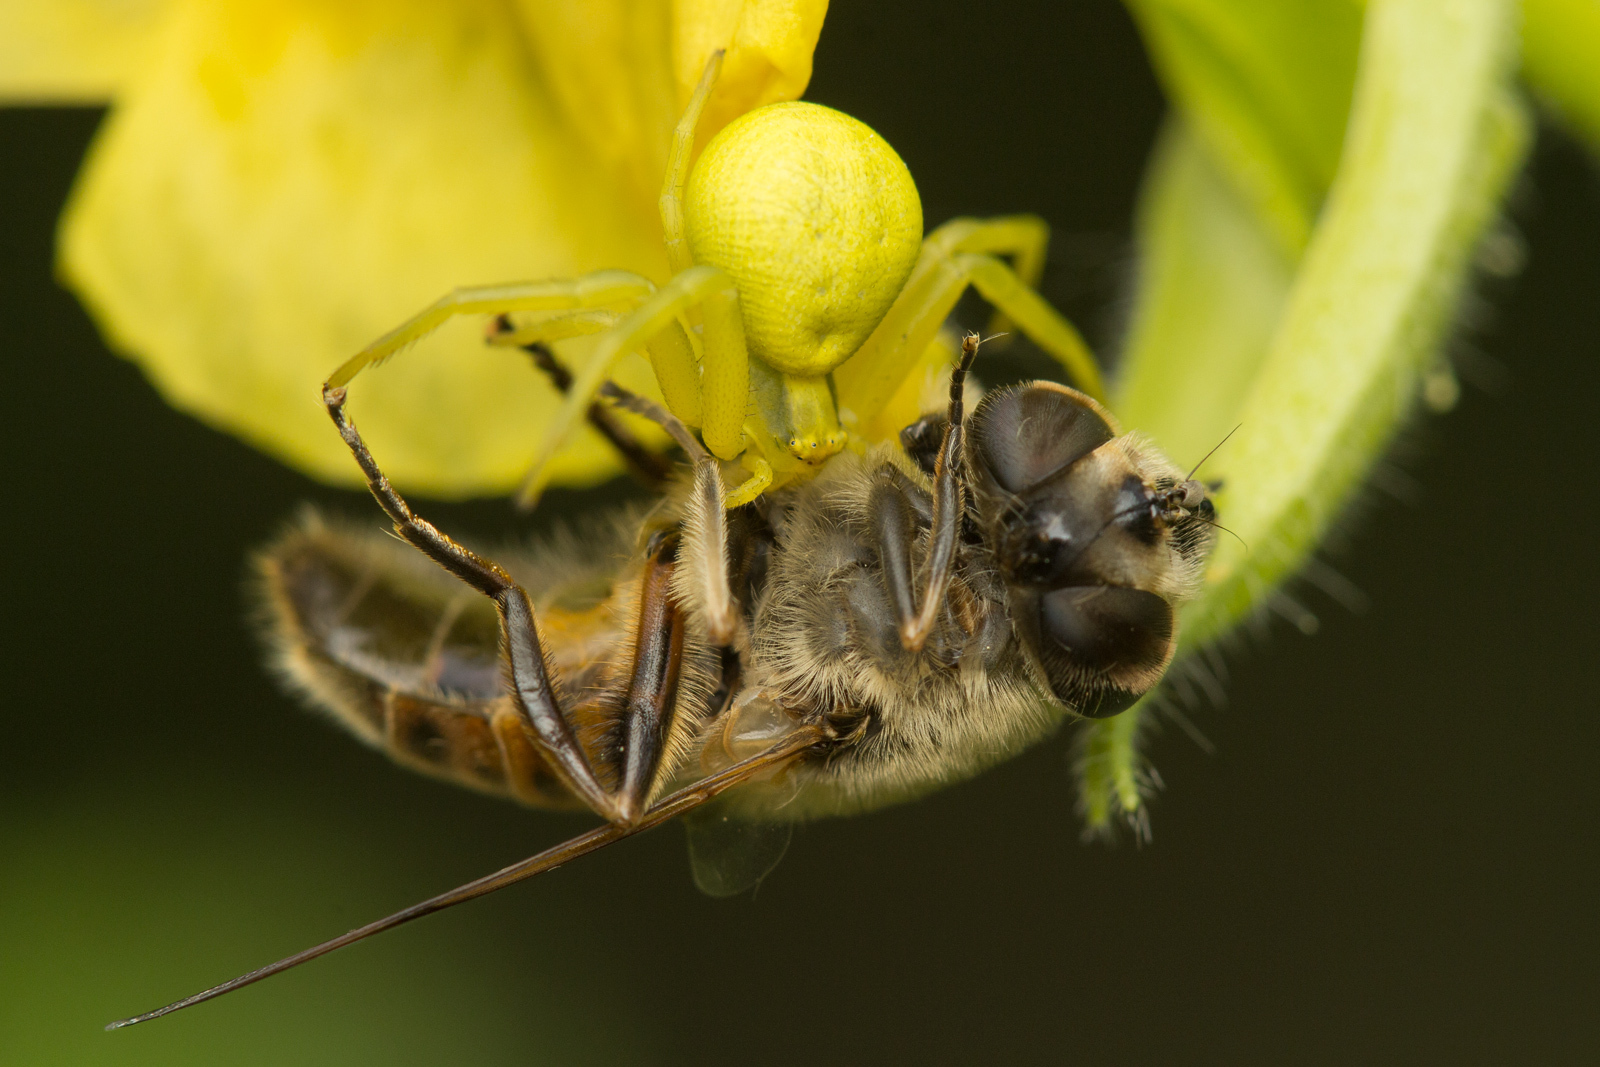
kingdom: Animalia
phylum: Arthropoda
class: Arachnida
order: Araneae
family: Thomisidae
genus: Misumena
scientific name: Misumena vatia
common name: Goldenrod crab spider
